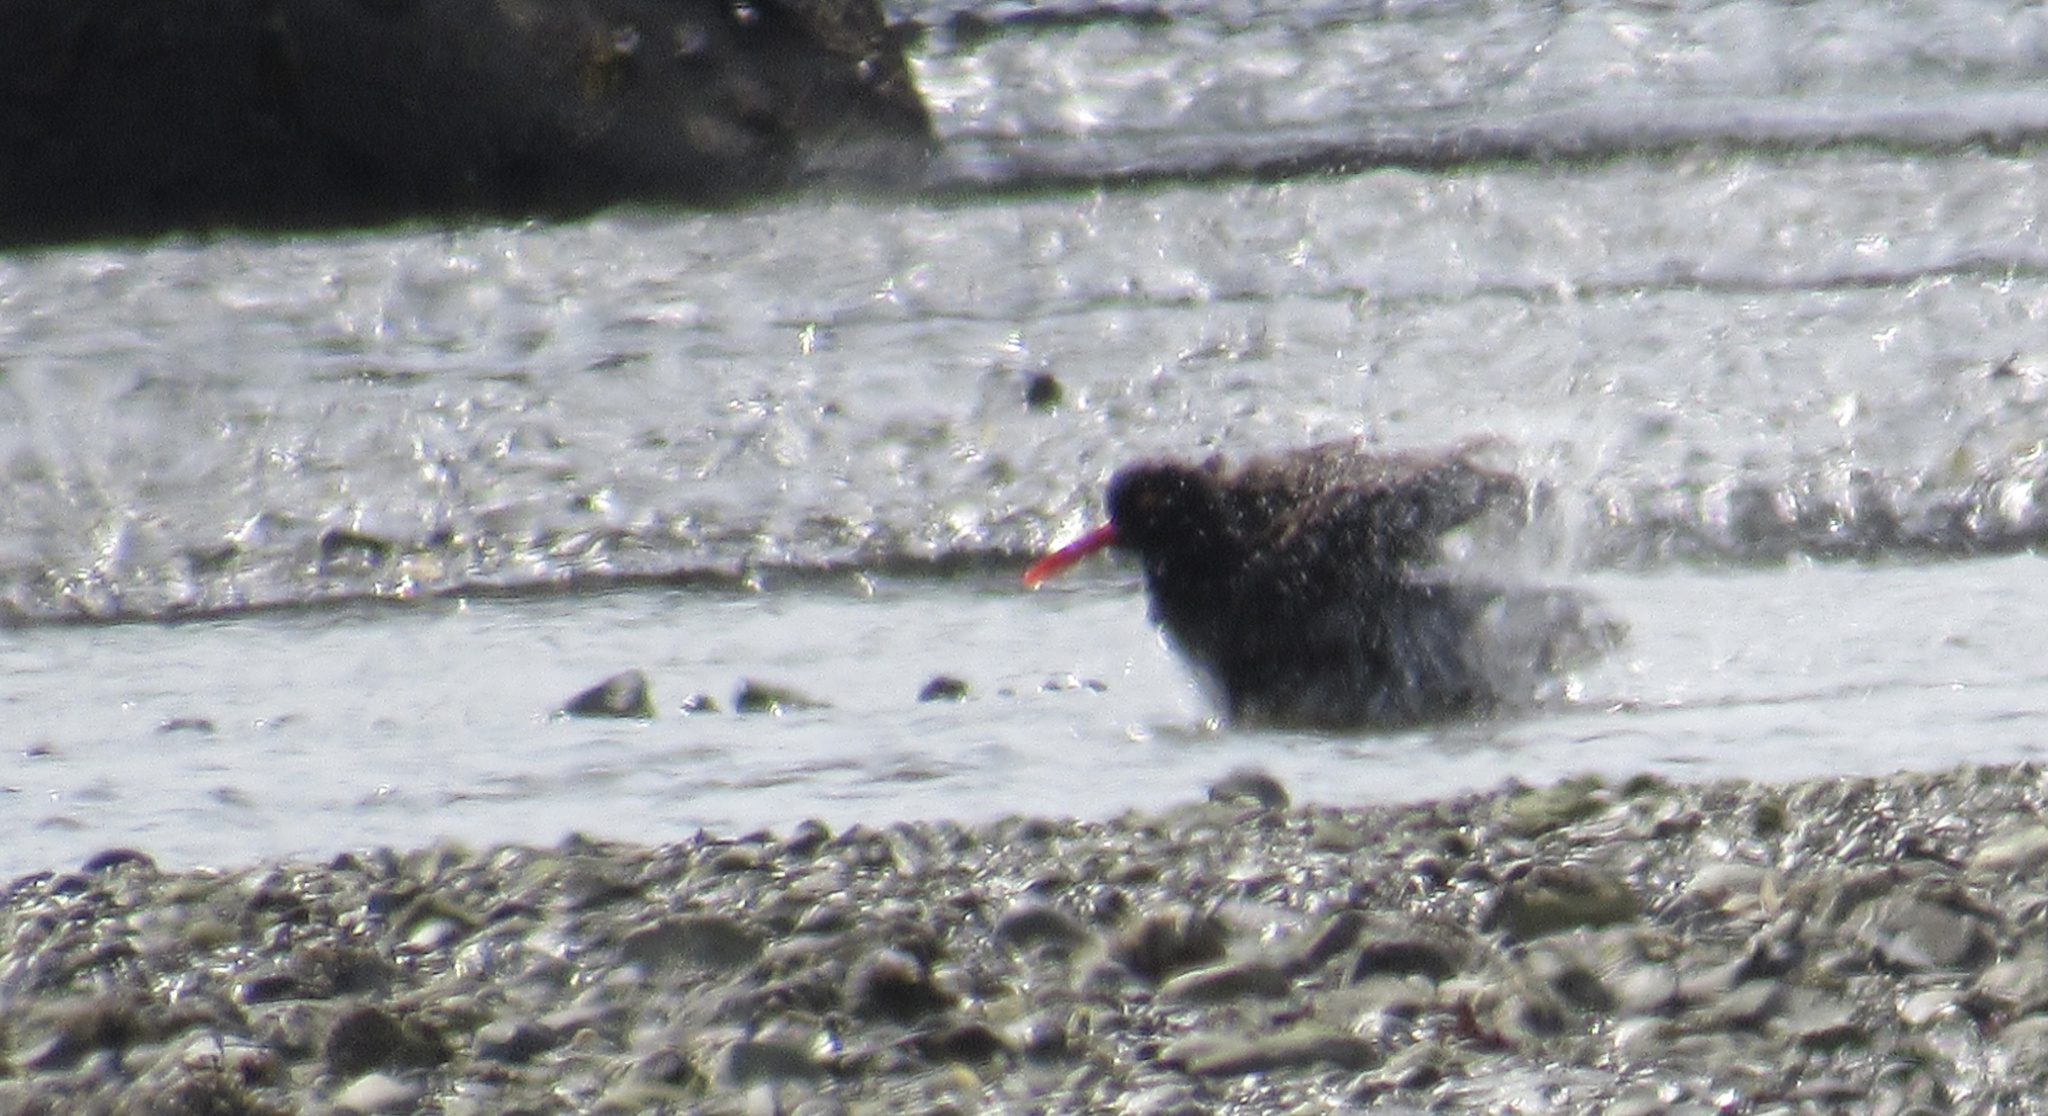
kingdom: Animalia
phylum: Chordata
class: Aves
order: Charadriiformes
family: Haematopodidae
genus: Haematopus
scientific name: Haematopus bachmani
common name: Black oystercatcher
